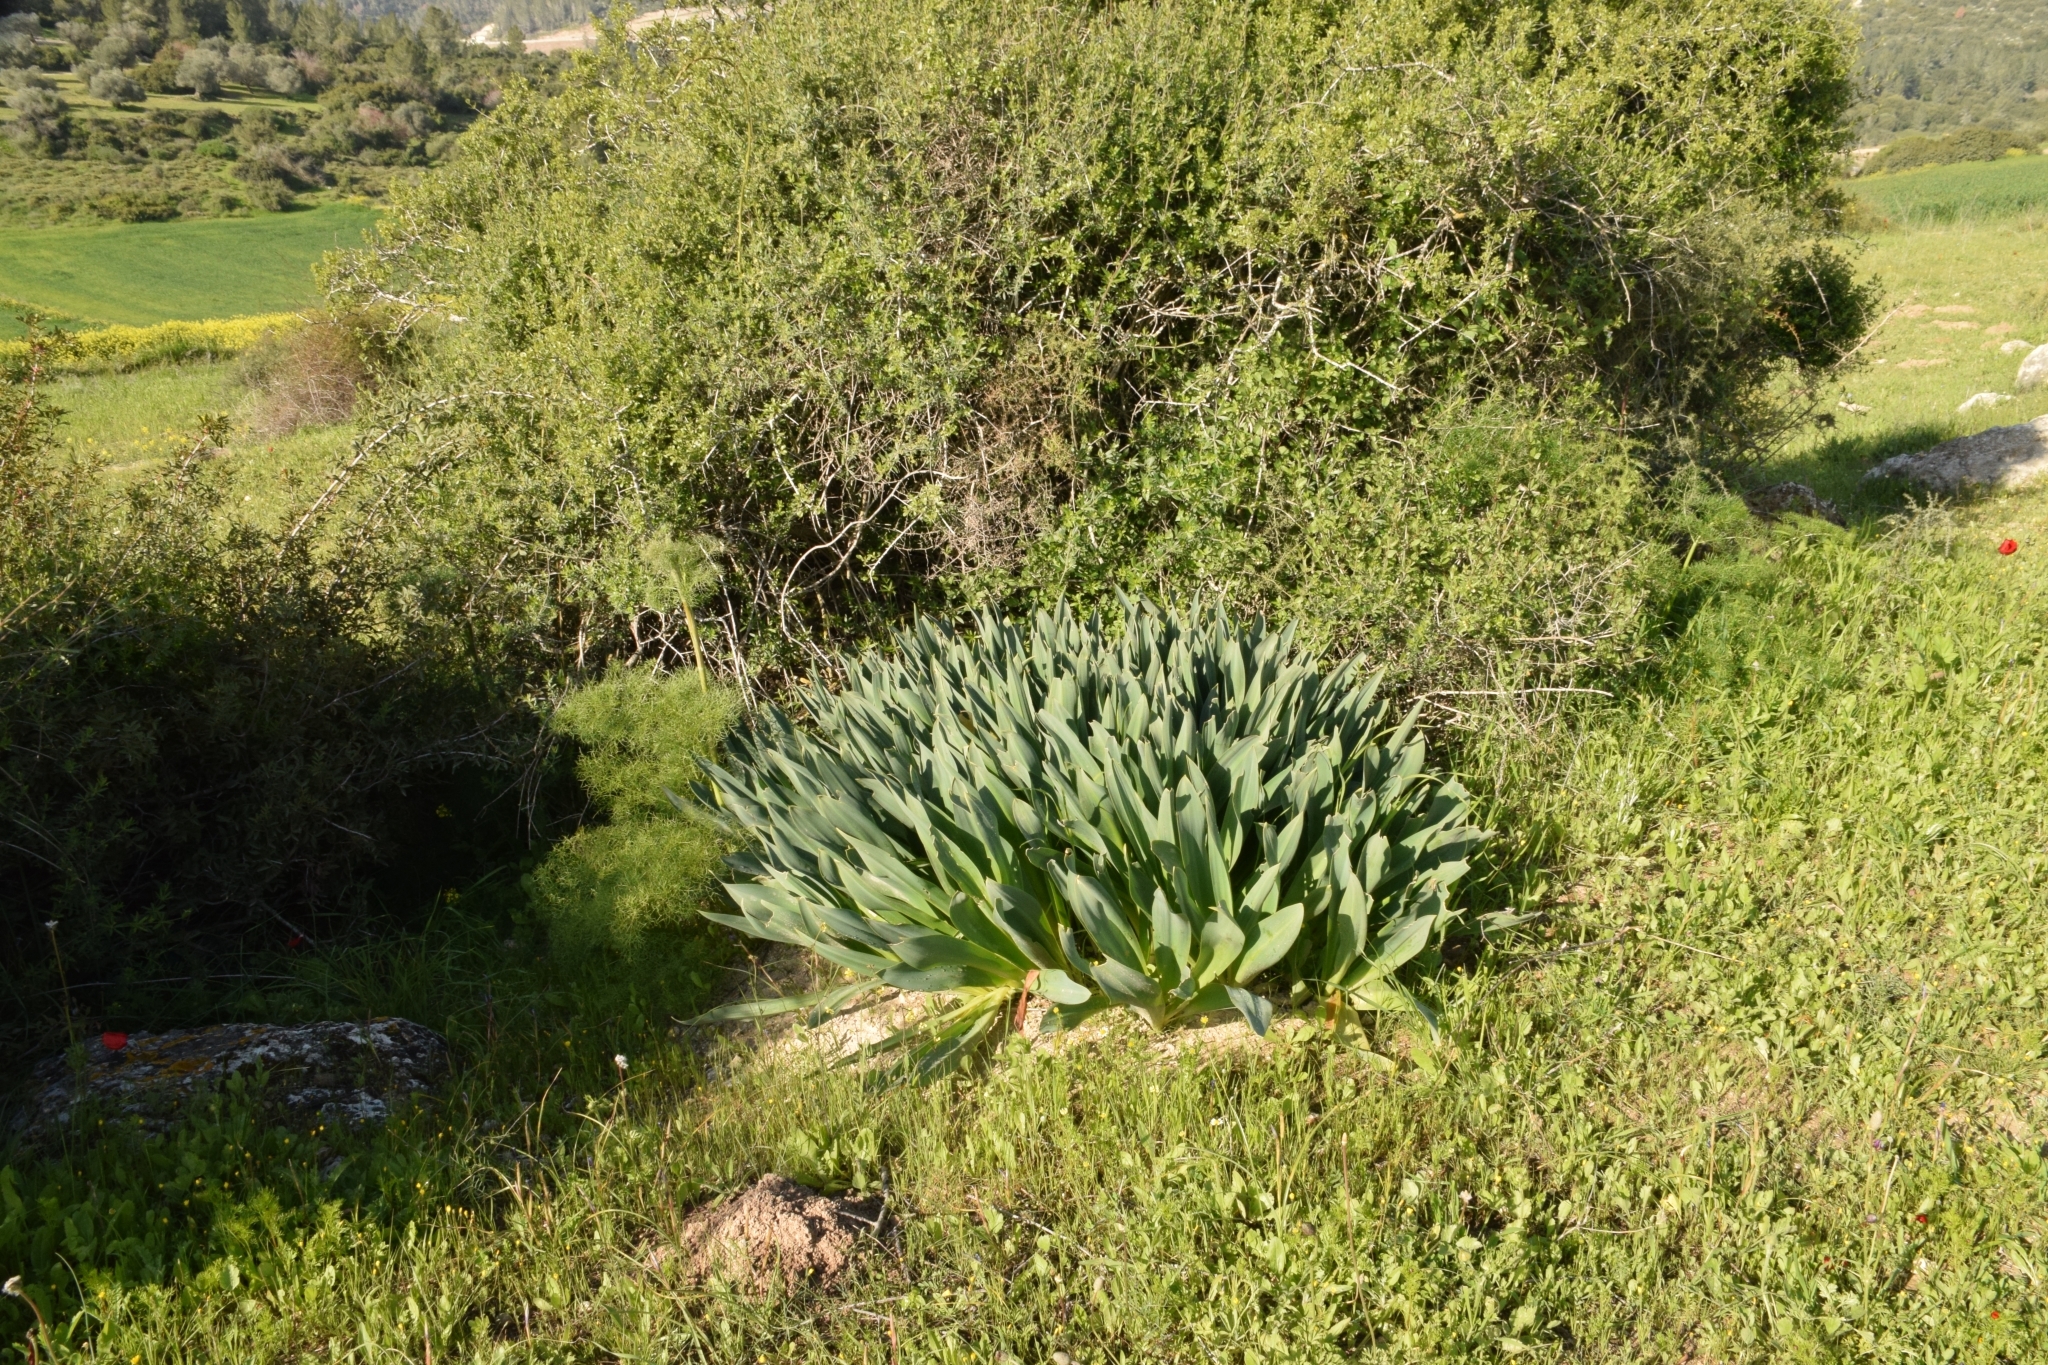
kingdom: Plantae
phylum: Tracheophyta
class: Liliopsida
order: Asparagales
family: Asparagaceae
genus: Drimia
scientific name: Drimia aphylla
